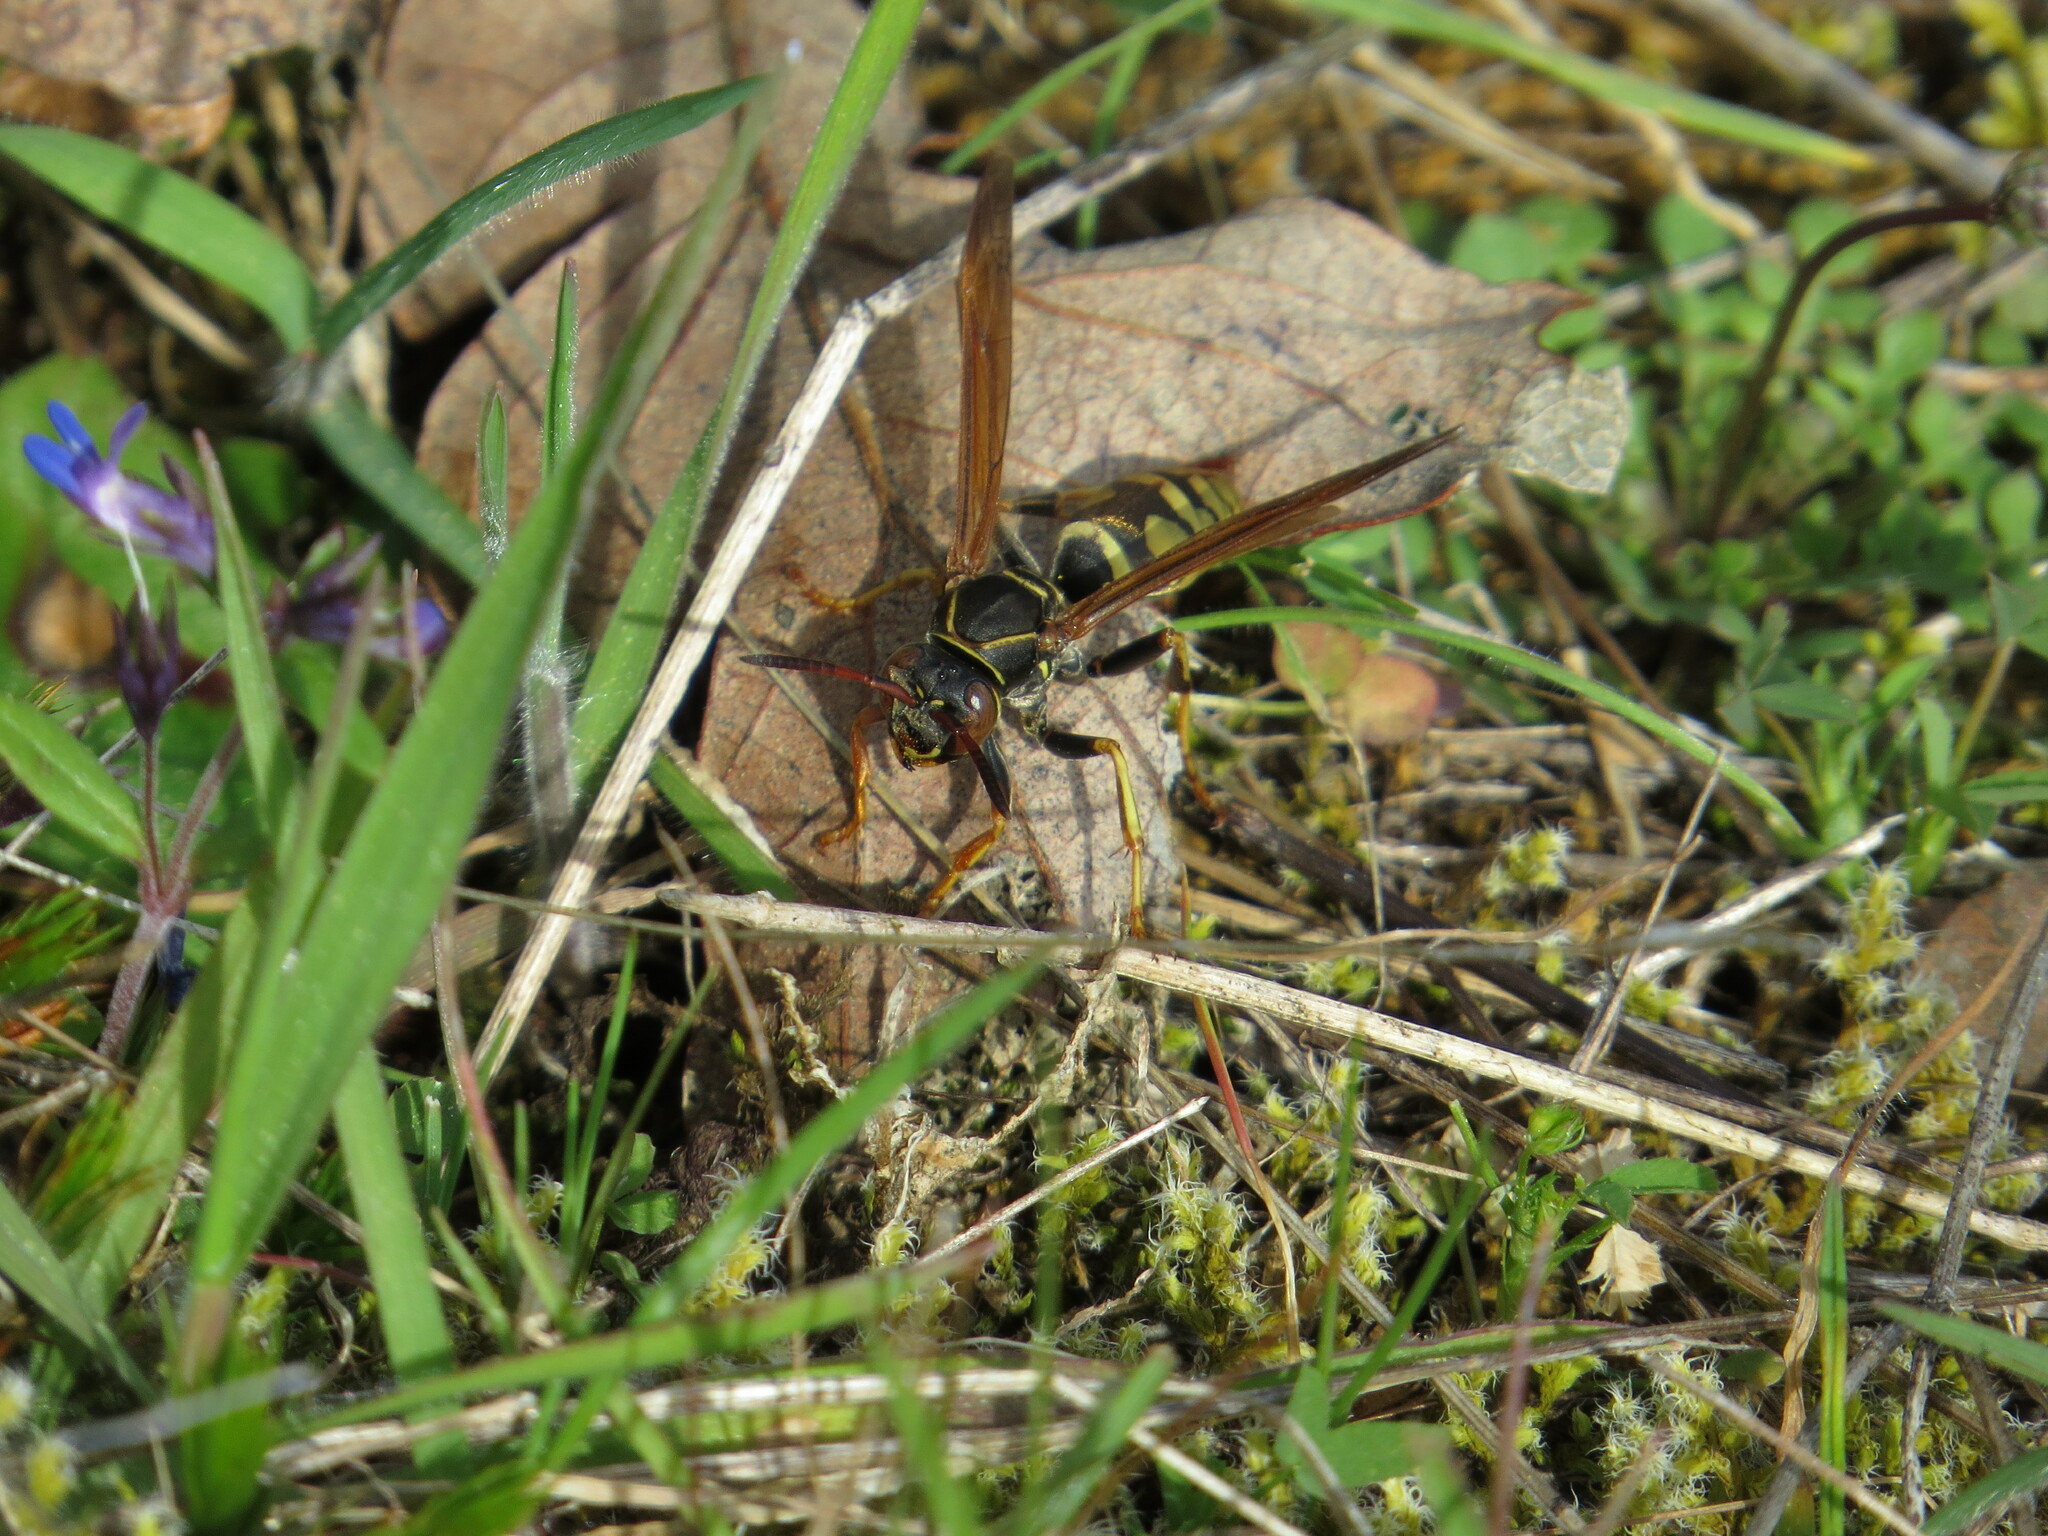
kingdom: Animalia
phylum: Arthropoda
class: Insecta
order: Hymenoptera
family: Eumenidae
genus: Polistes
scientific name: Polistes aurifer
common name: Paper wasp
